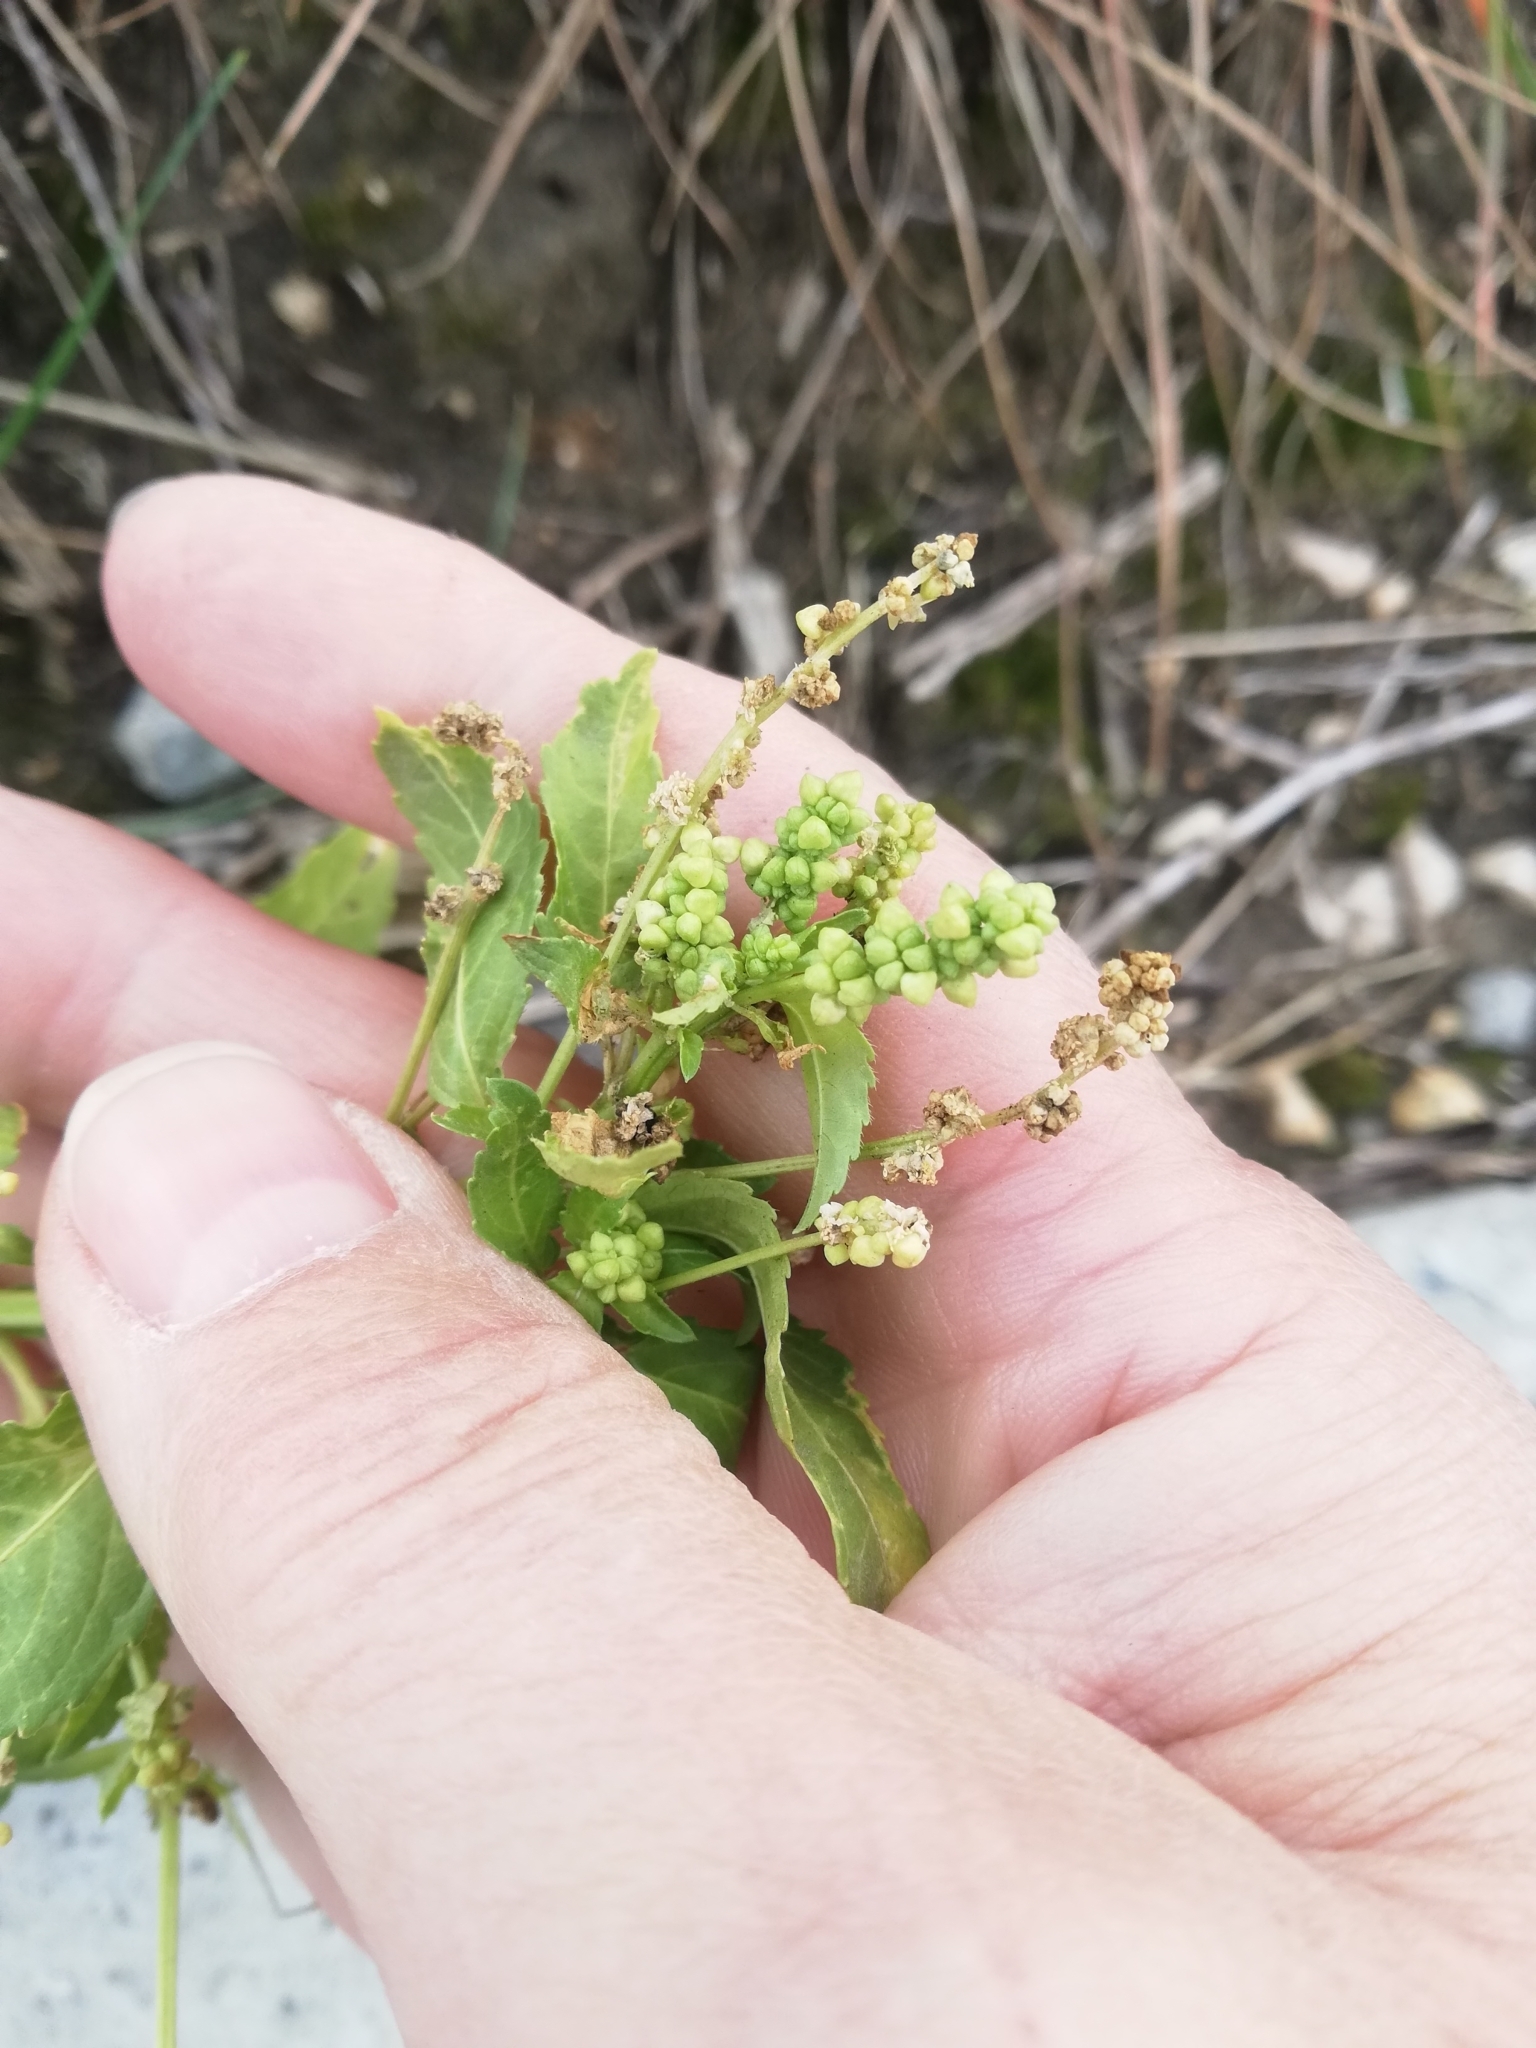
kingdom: Plantae
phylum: Tracheophyta
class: Magnoliopsida
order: Malpighiales
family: Euphorbiaceae
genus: Mercurialis
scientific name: Mercurialis annua
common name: Annual mercury
